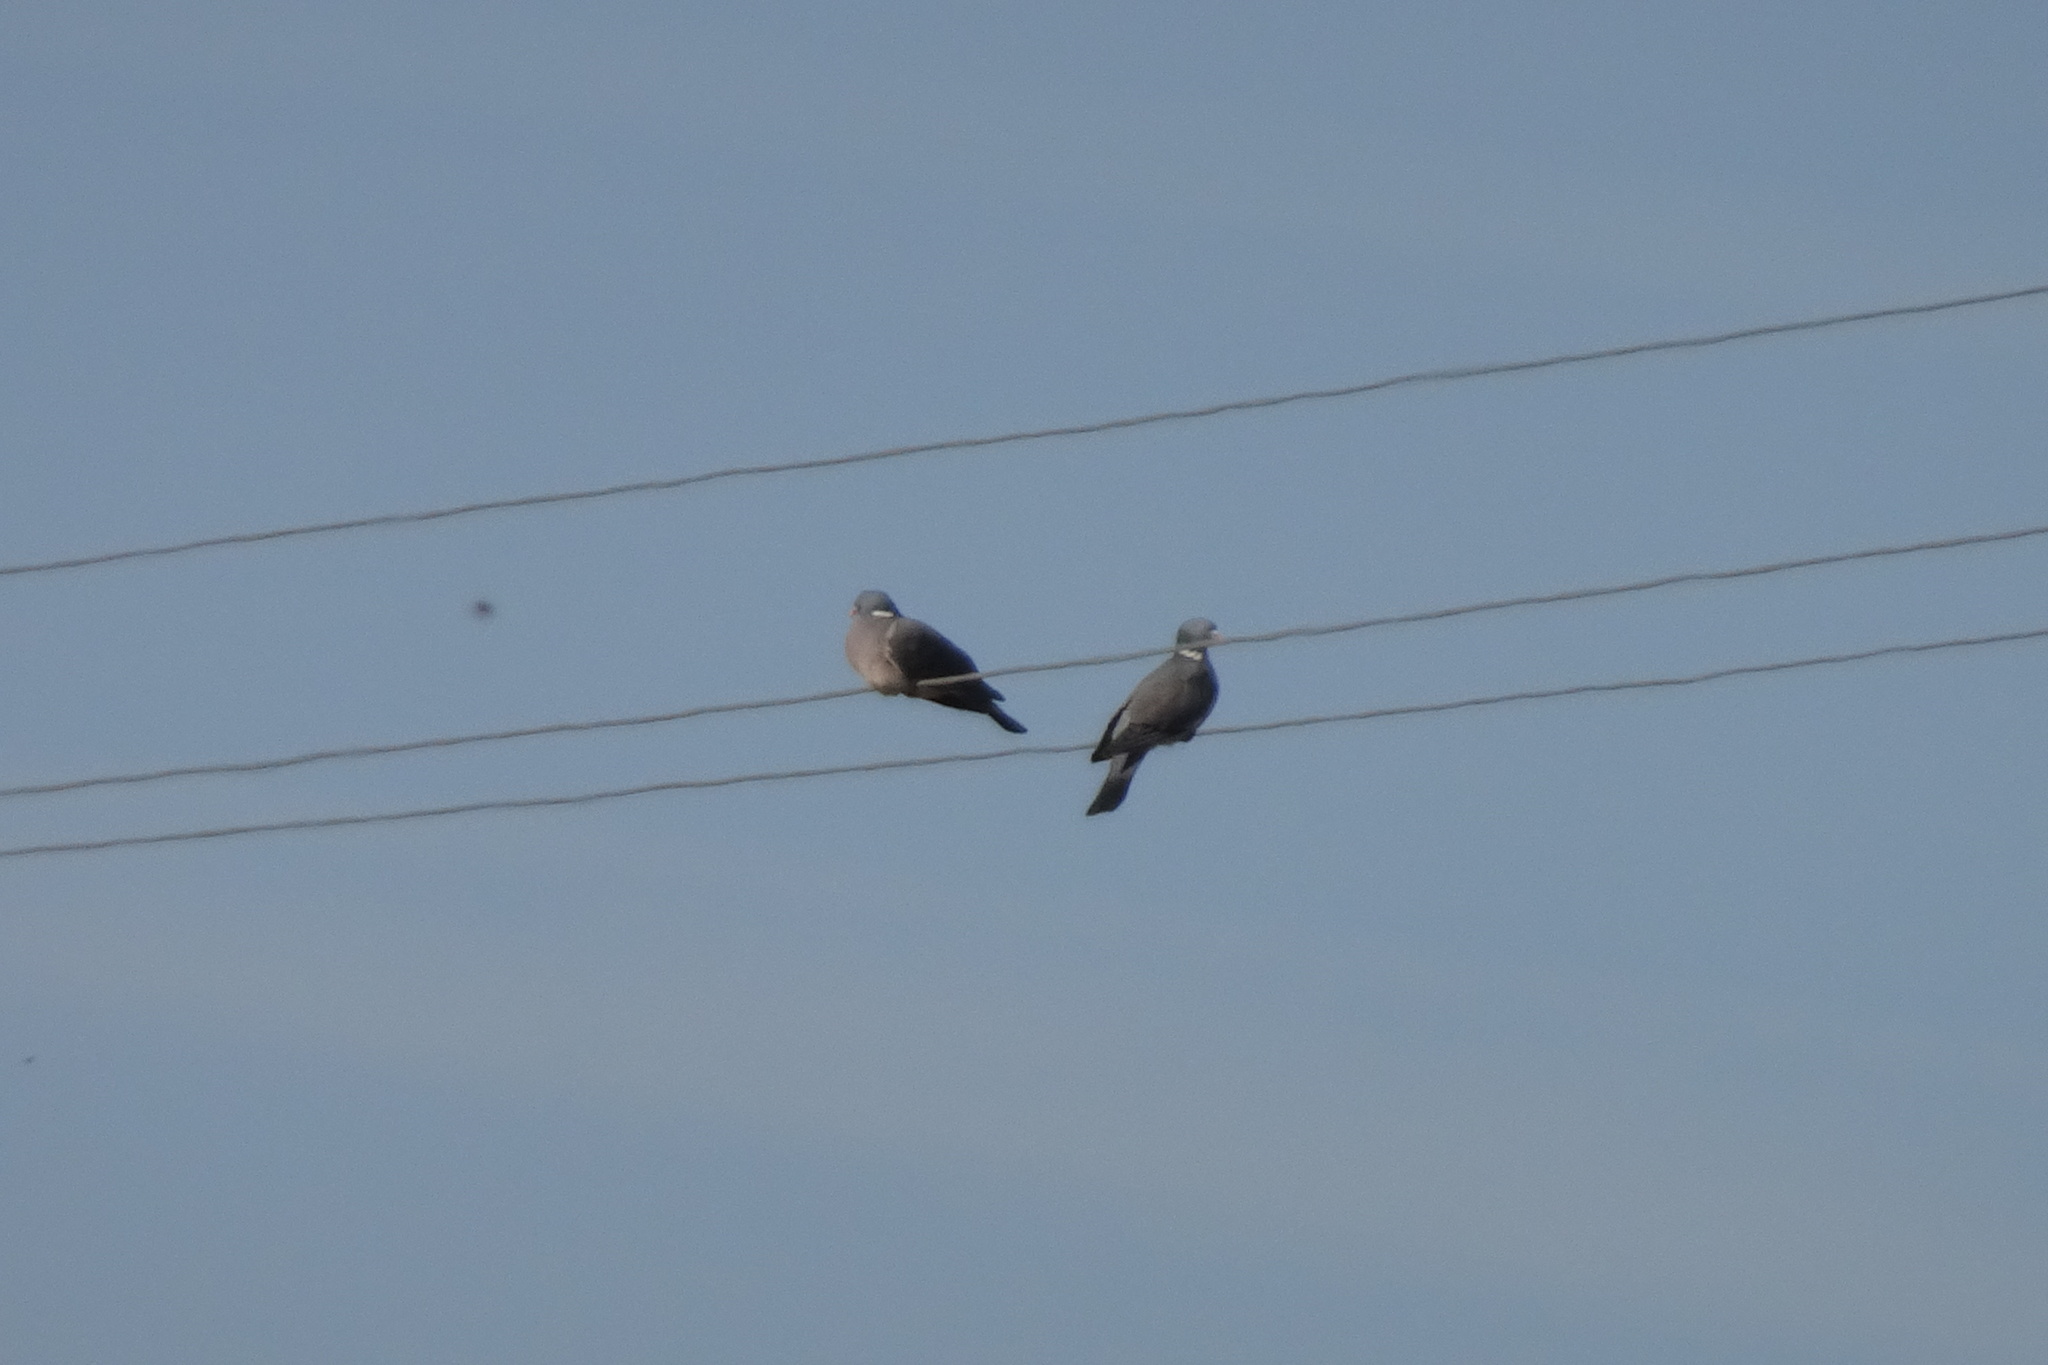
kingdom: Animalia
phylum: Chordata
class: Aves
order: Columbiformes
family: Columbidae
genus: Columba
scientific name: Columba palumbus
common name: Common wood pigeon
